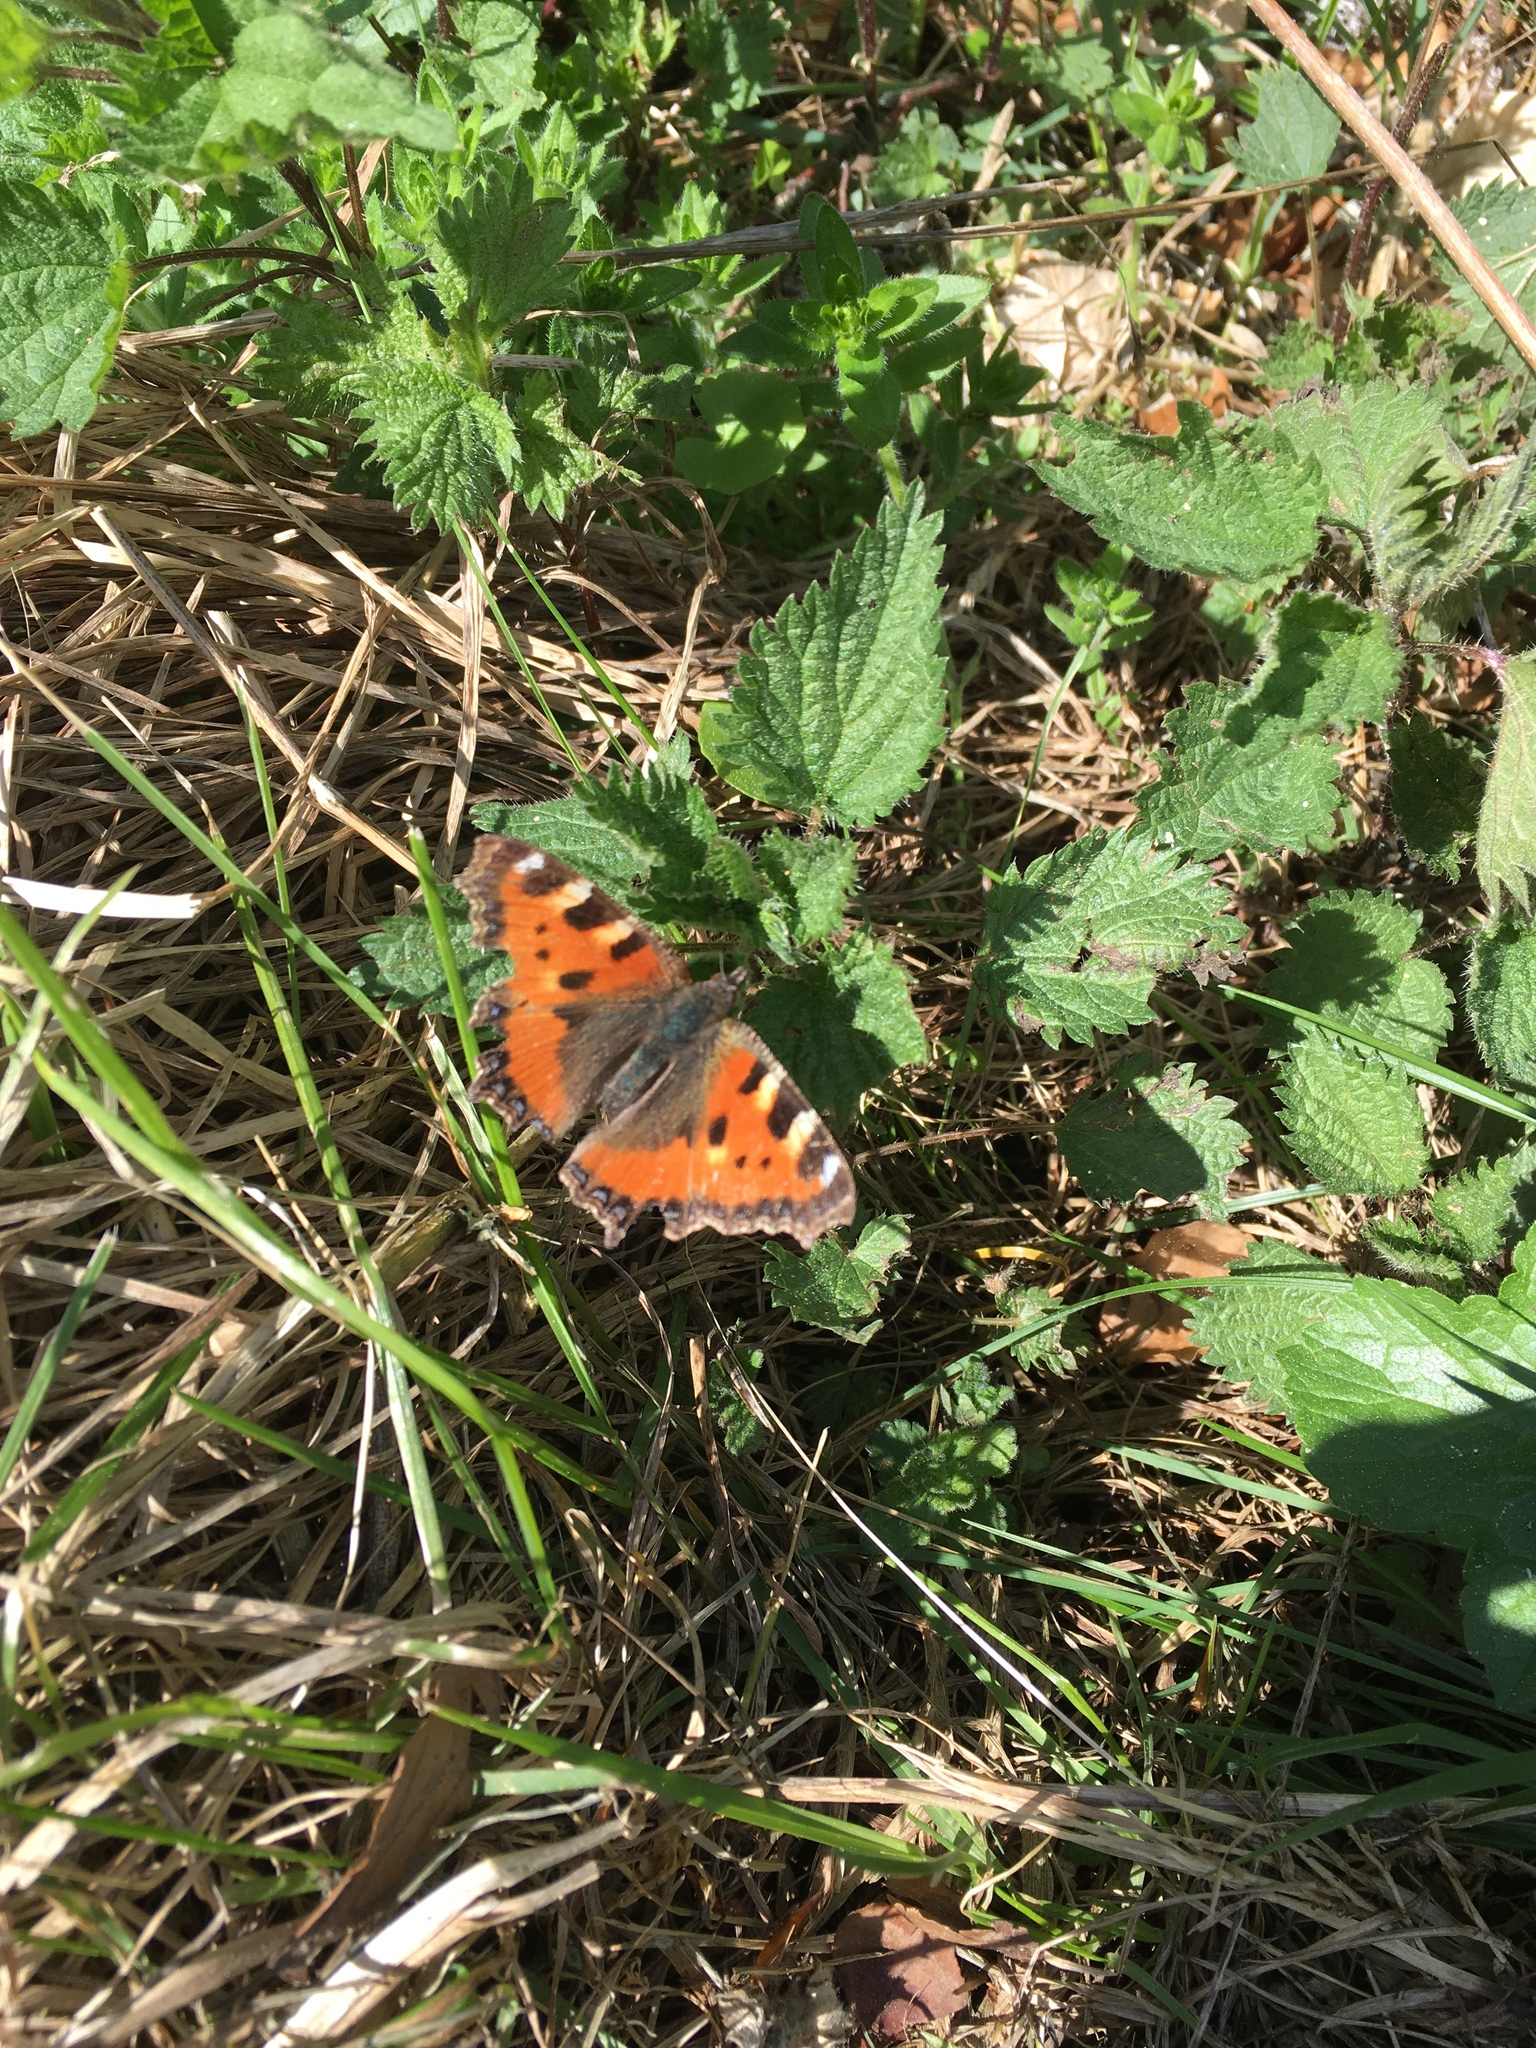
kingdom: Animalia
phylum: Arthropoda
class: Insecta
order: Lepidoptera
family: Nymphalidae
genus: Aglais
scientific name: Aglais urticae
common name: Small tortoiseshell
